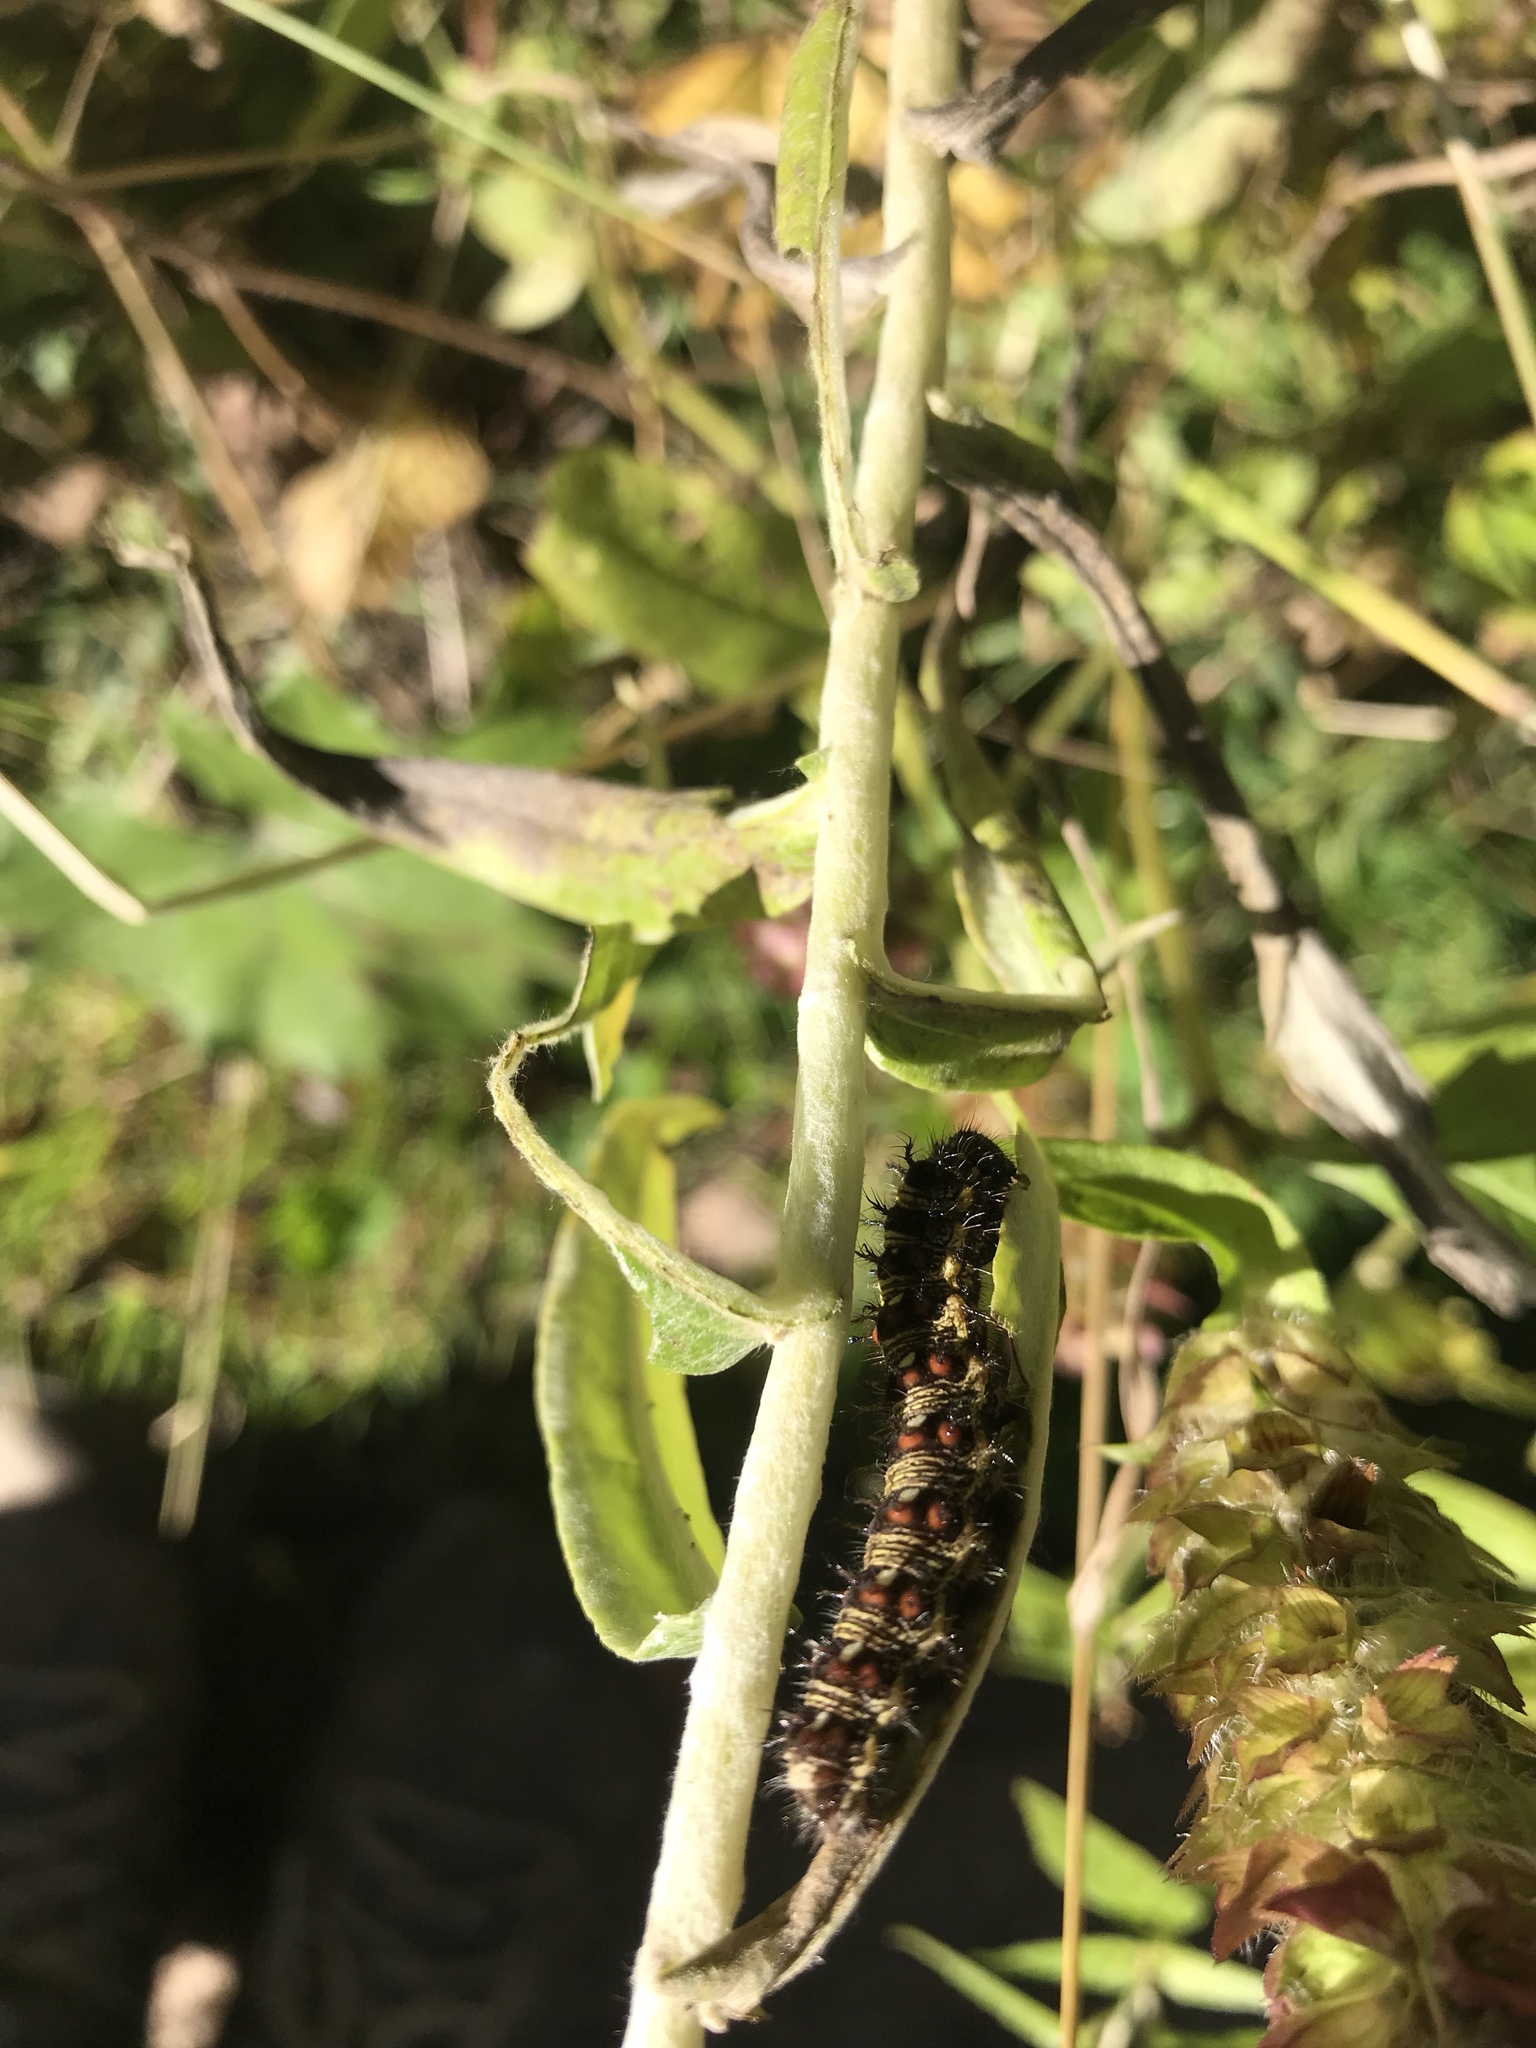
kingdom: Animalia
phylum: Arthropoda
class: Insecta
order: Lepidoptera
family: Nymphalidae
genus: Vanessa
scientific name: Vanessa virginiensis
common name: American lady
